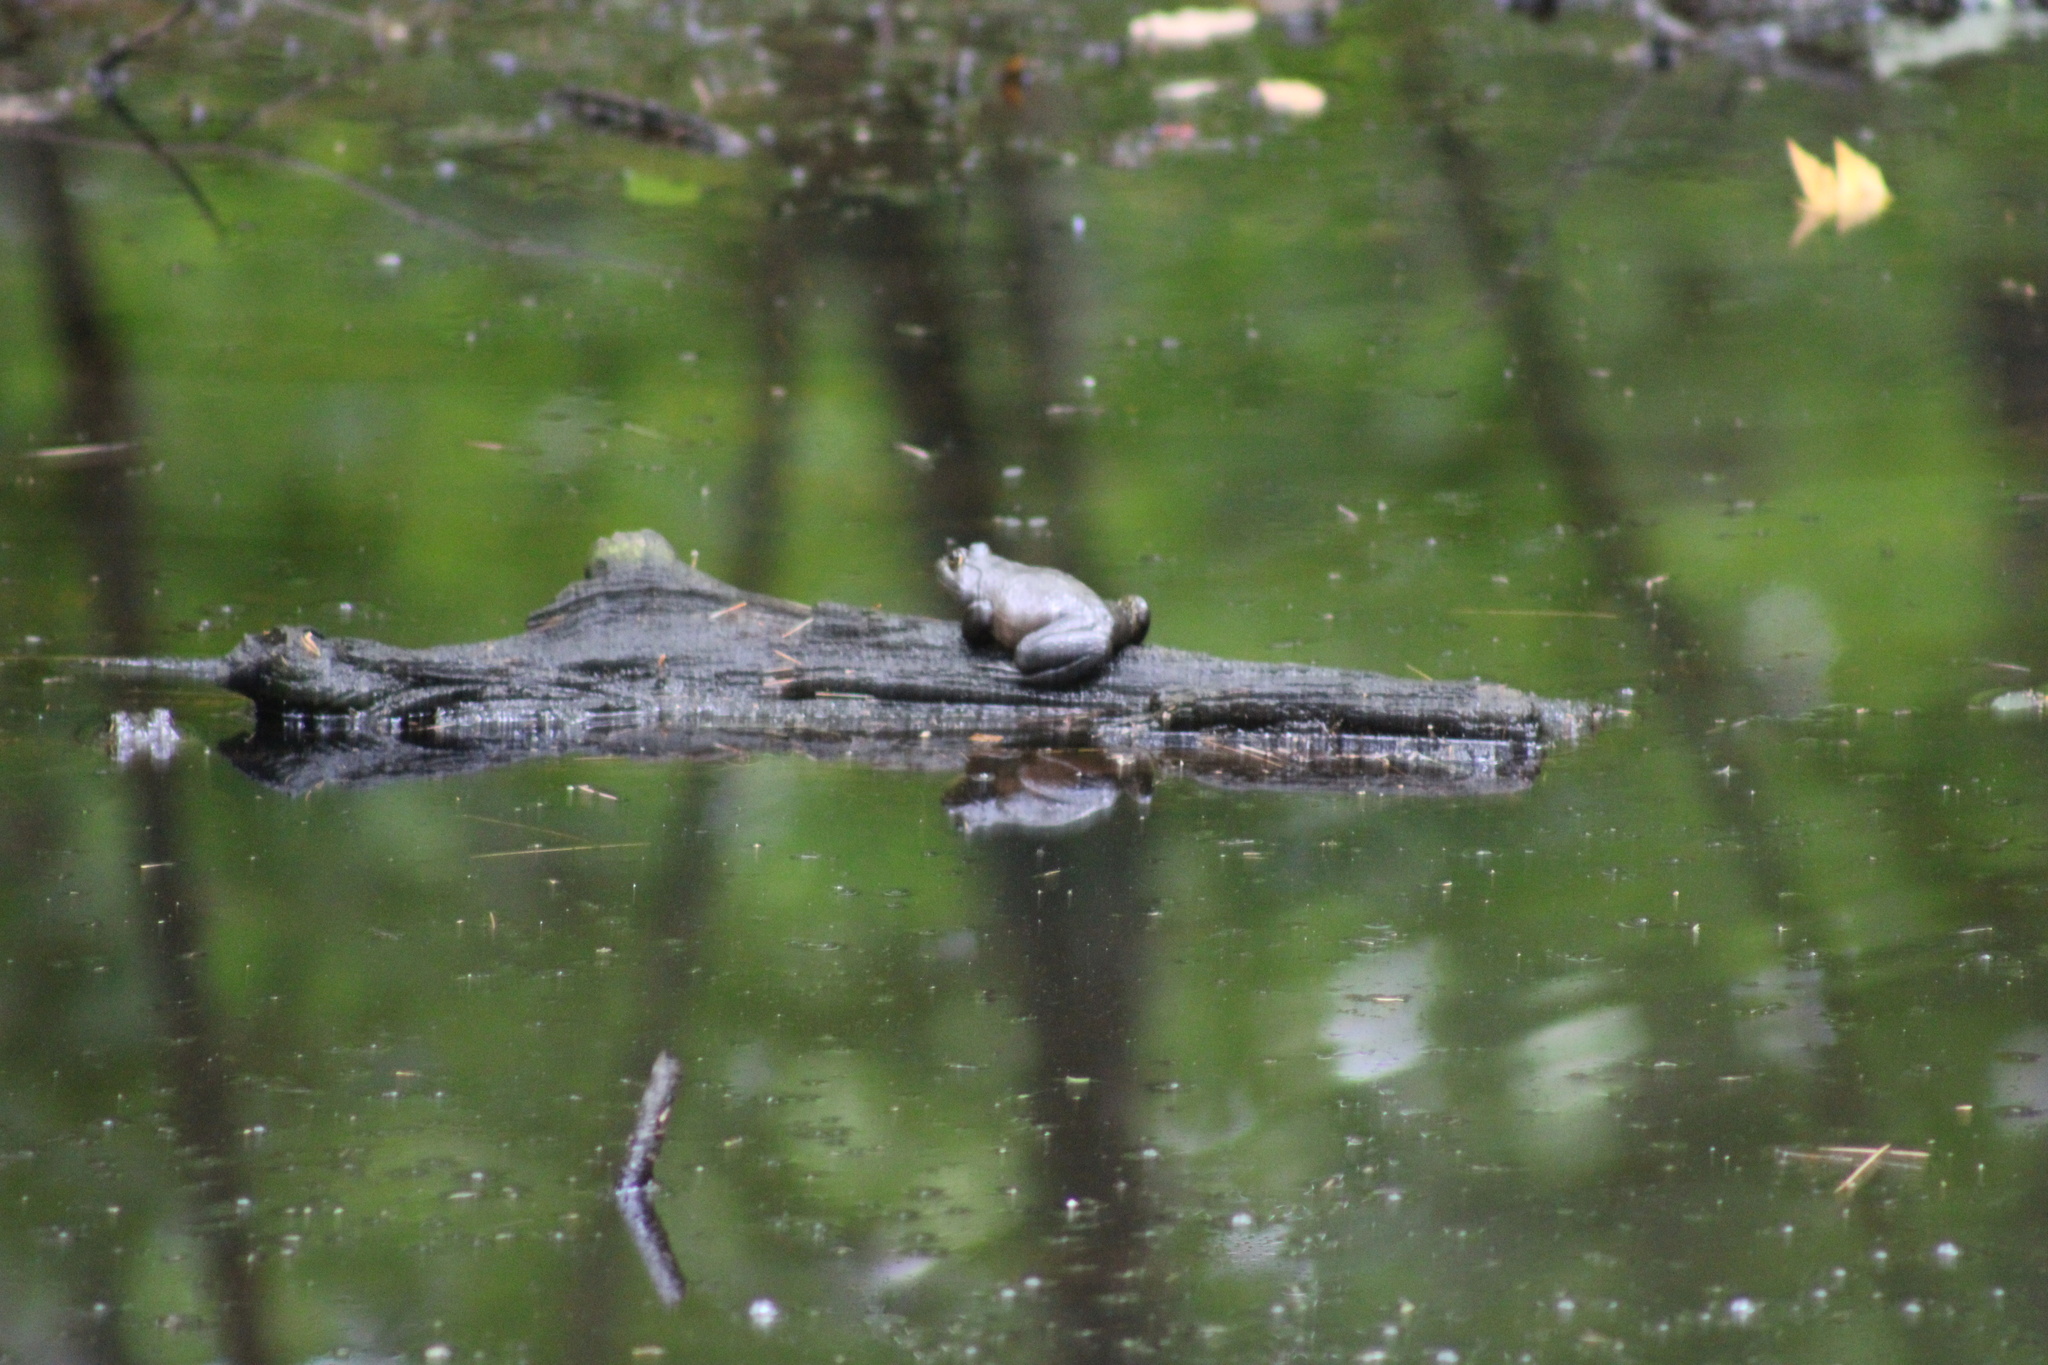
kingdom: Animalia
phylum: Chordata
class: Amphibia
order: Anura
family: Ranidae
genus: Lithobates
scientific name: Lithobates catesbeianus
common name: American bullfrog
